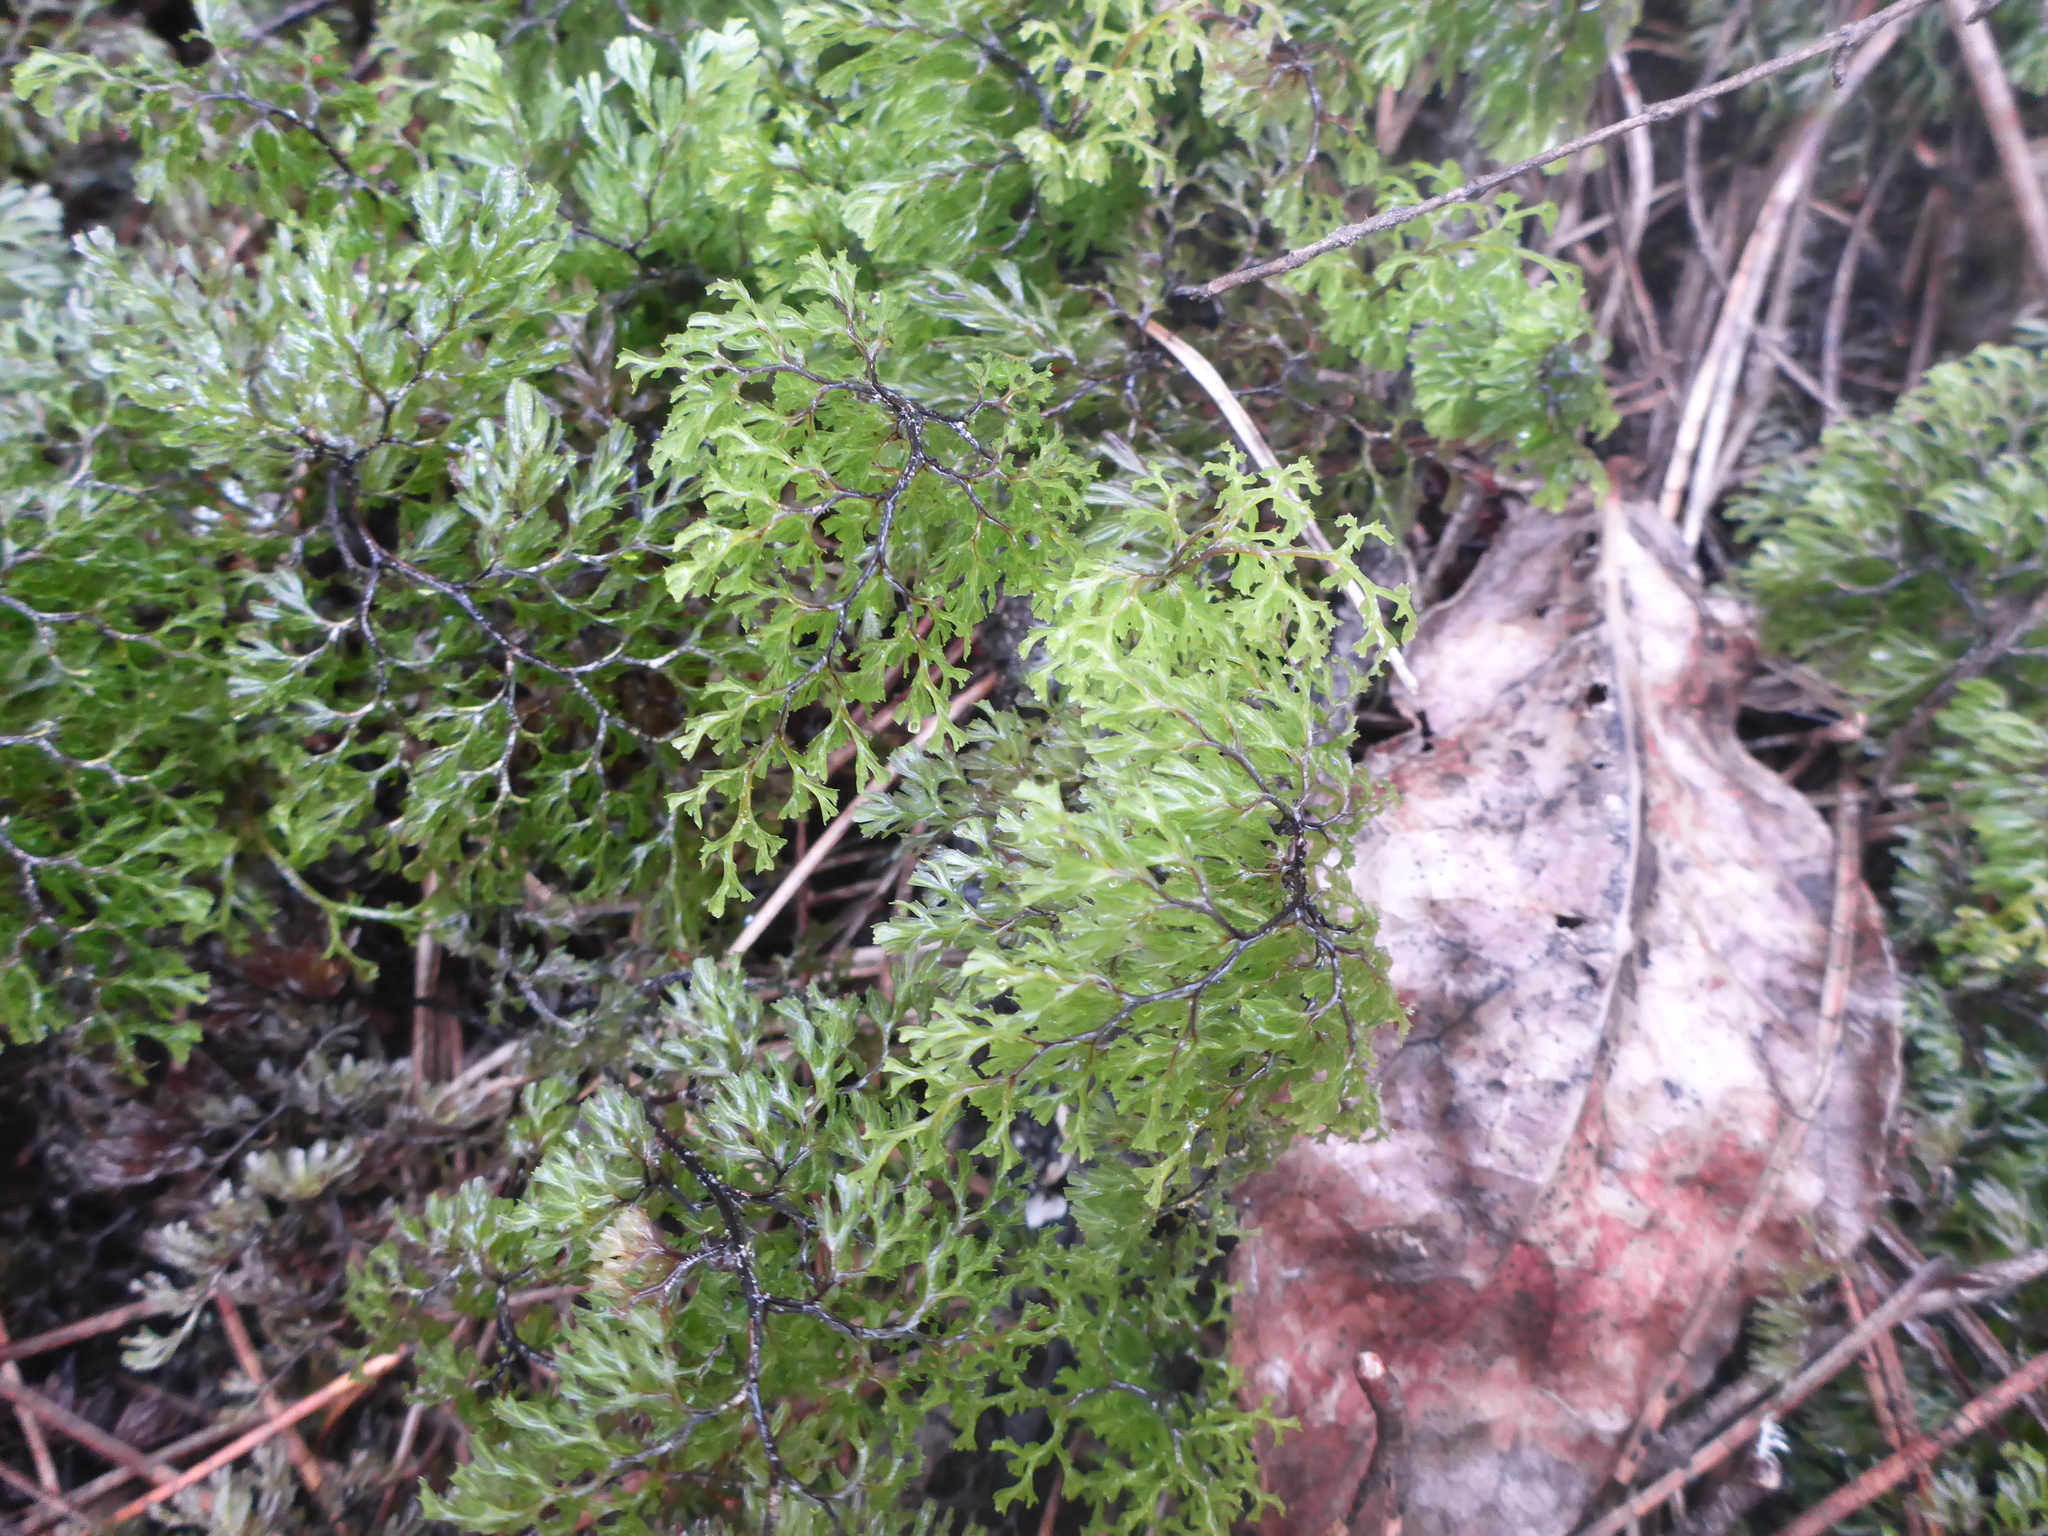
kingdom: Plantae
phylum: Tracheophyta
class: Polypodiopsida
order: Hymenophyllales
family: Hymenophyllaceae
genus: Hymenophyllum
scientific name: Hymenophyllum multifidum
